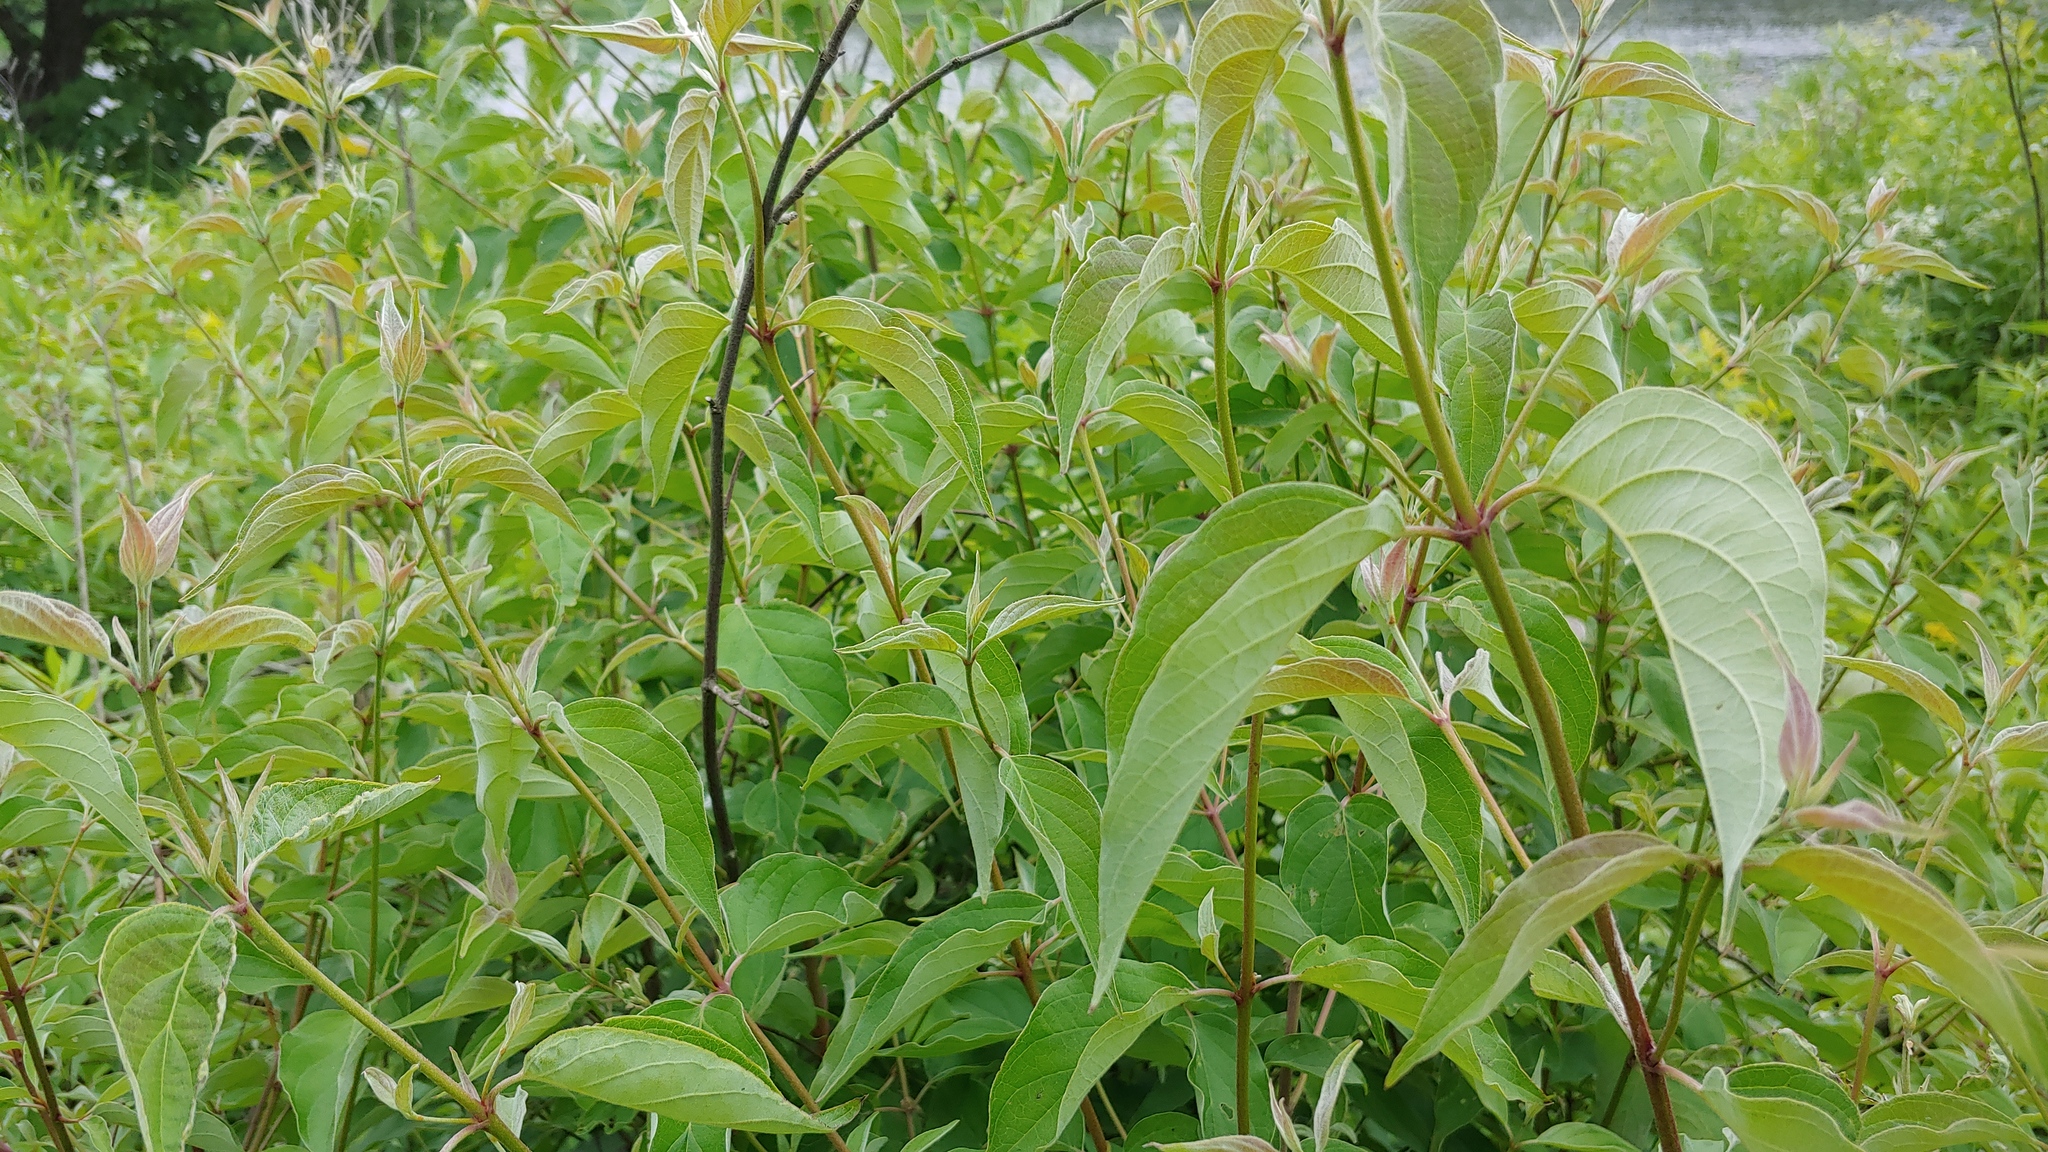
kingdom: Plantae
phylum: Tracheophyta
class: Magnoliopsida
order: Cornales
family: Cornaceae
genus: Cornus
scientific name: Cornus racemosa
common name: Panicled dogwood
